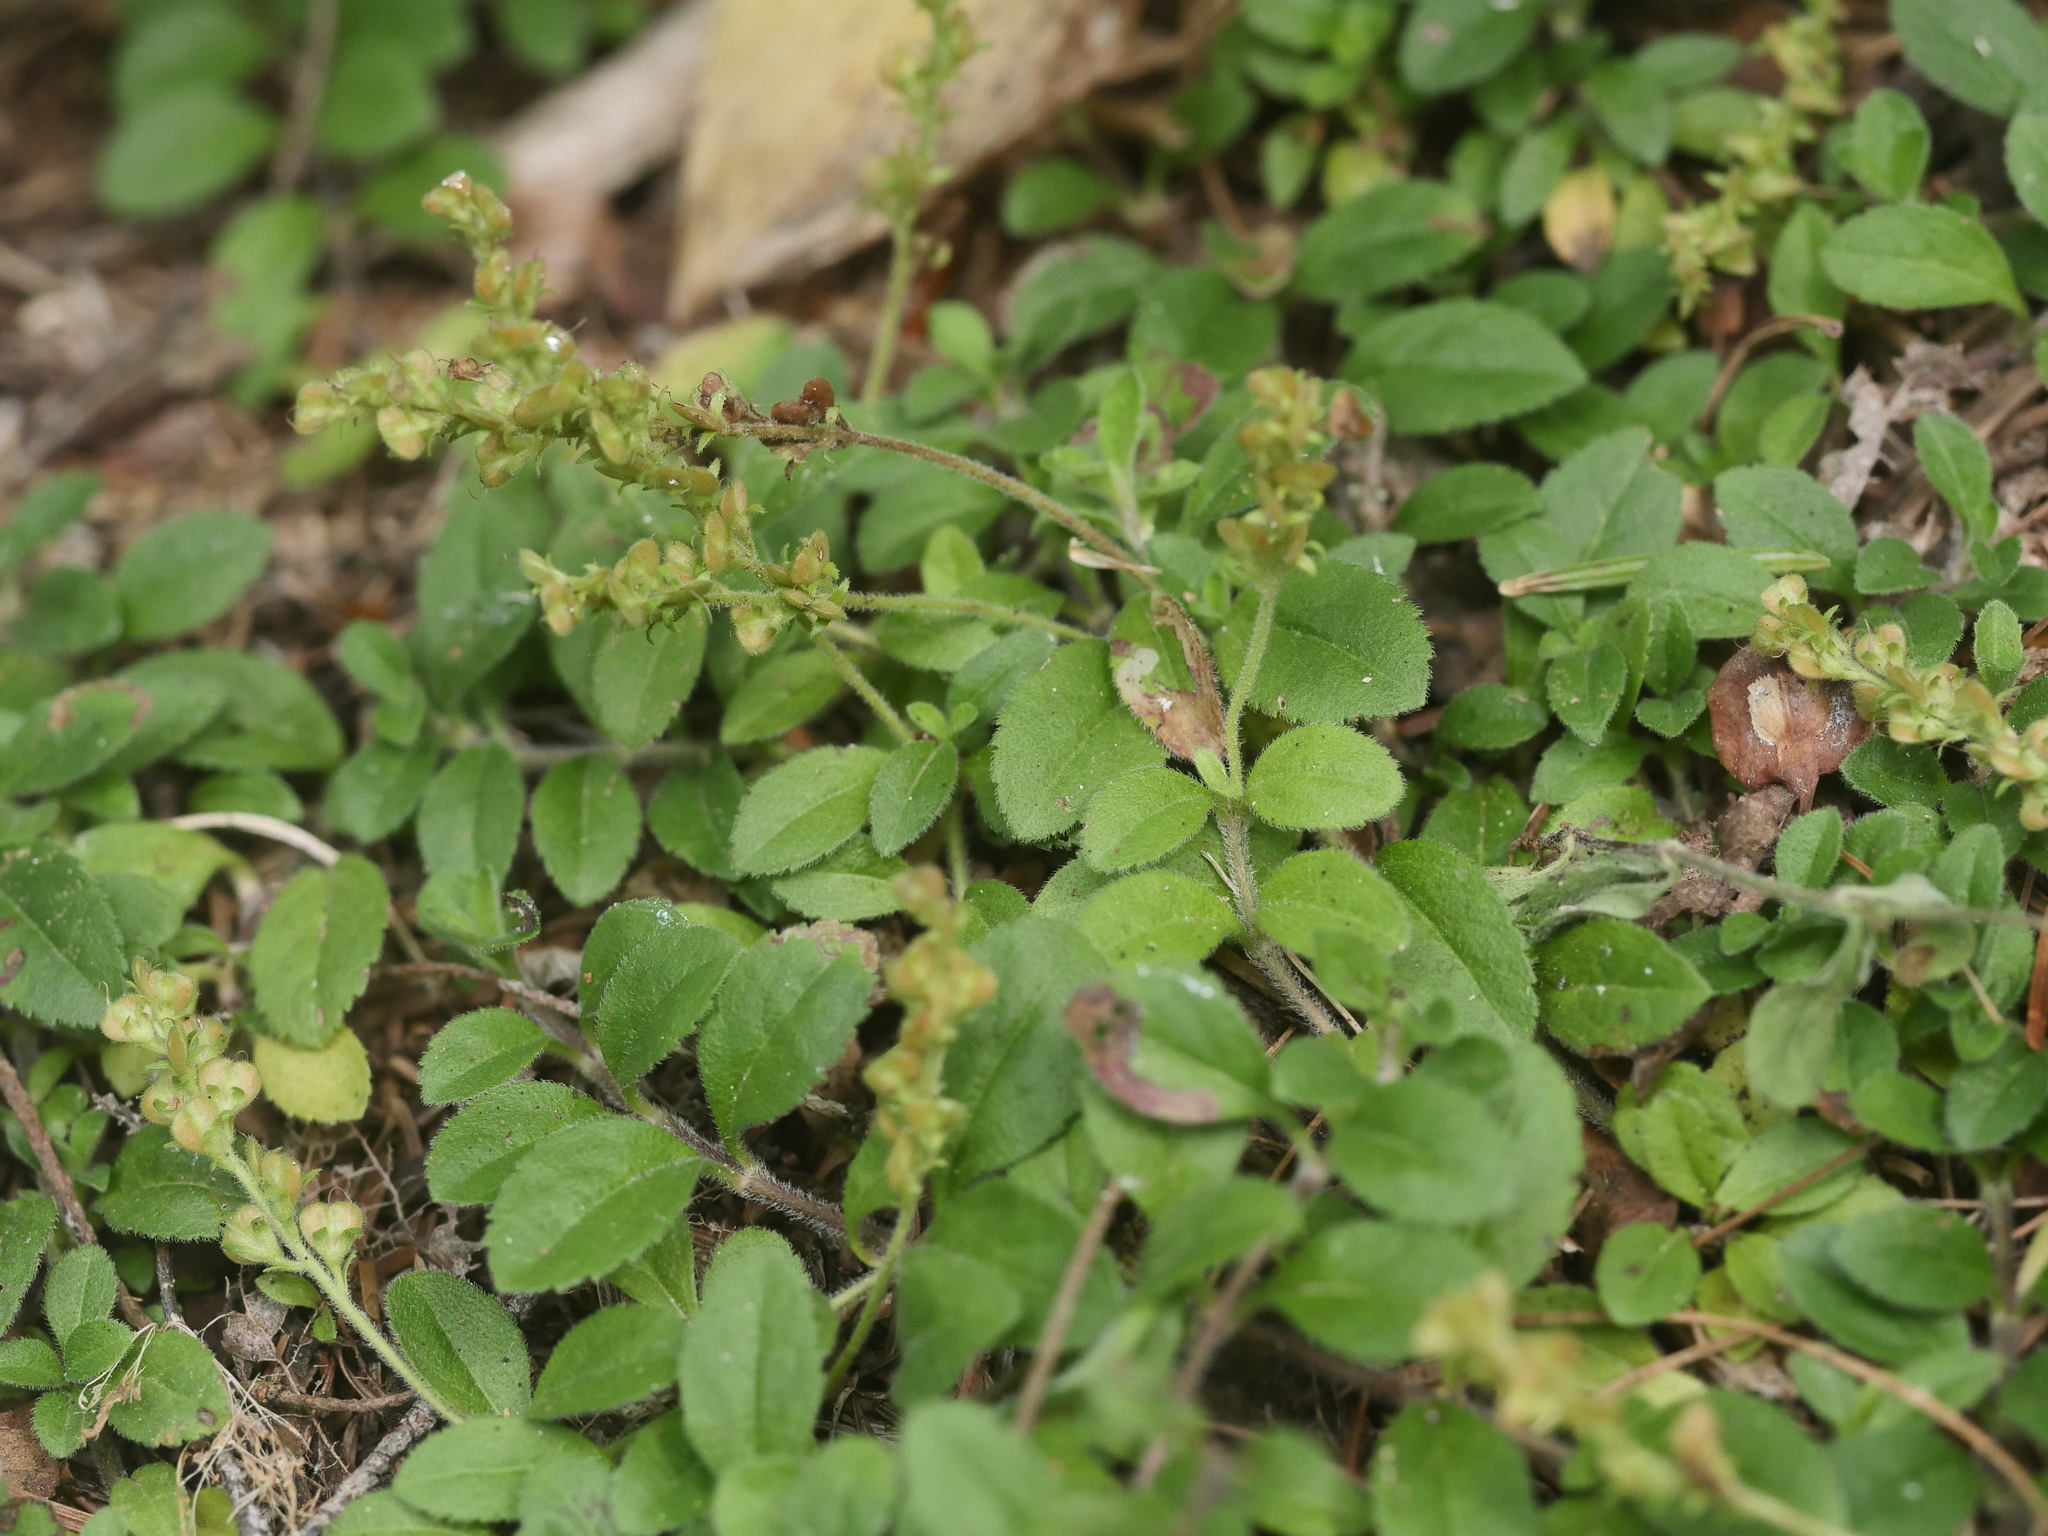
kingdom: Plantae
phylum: Tracheophyta
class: Magnoliopsida
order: Lamiales
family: Plantaginaceae
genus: Veronica
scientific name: Veronica officinalis
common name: Common speedwell
